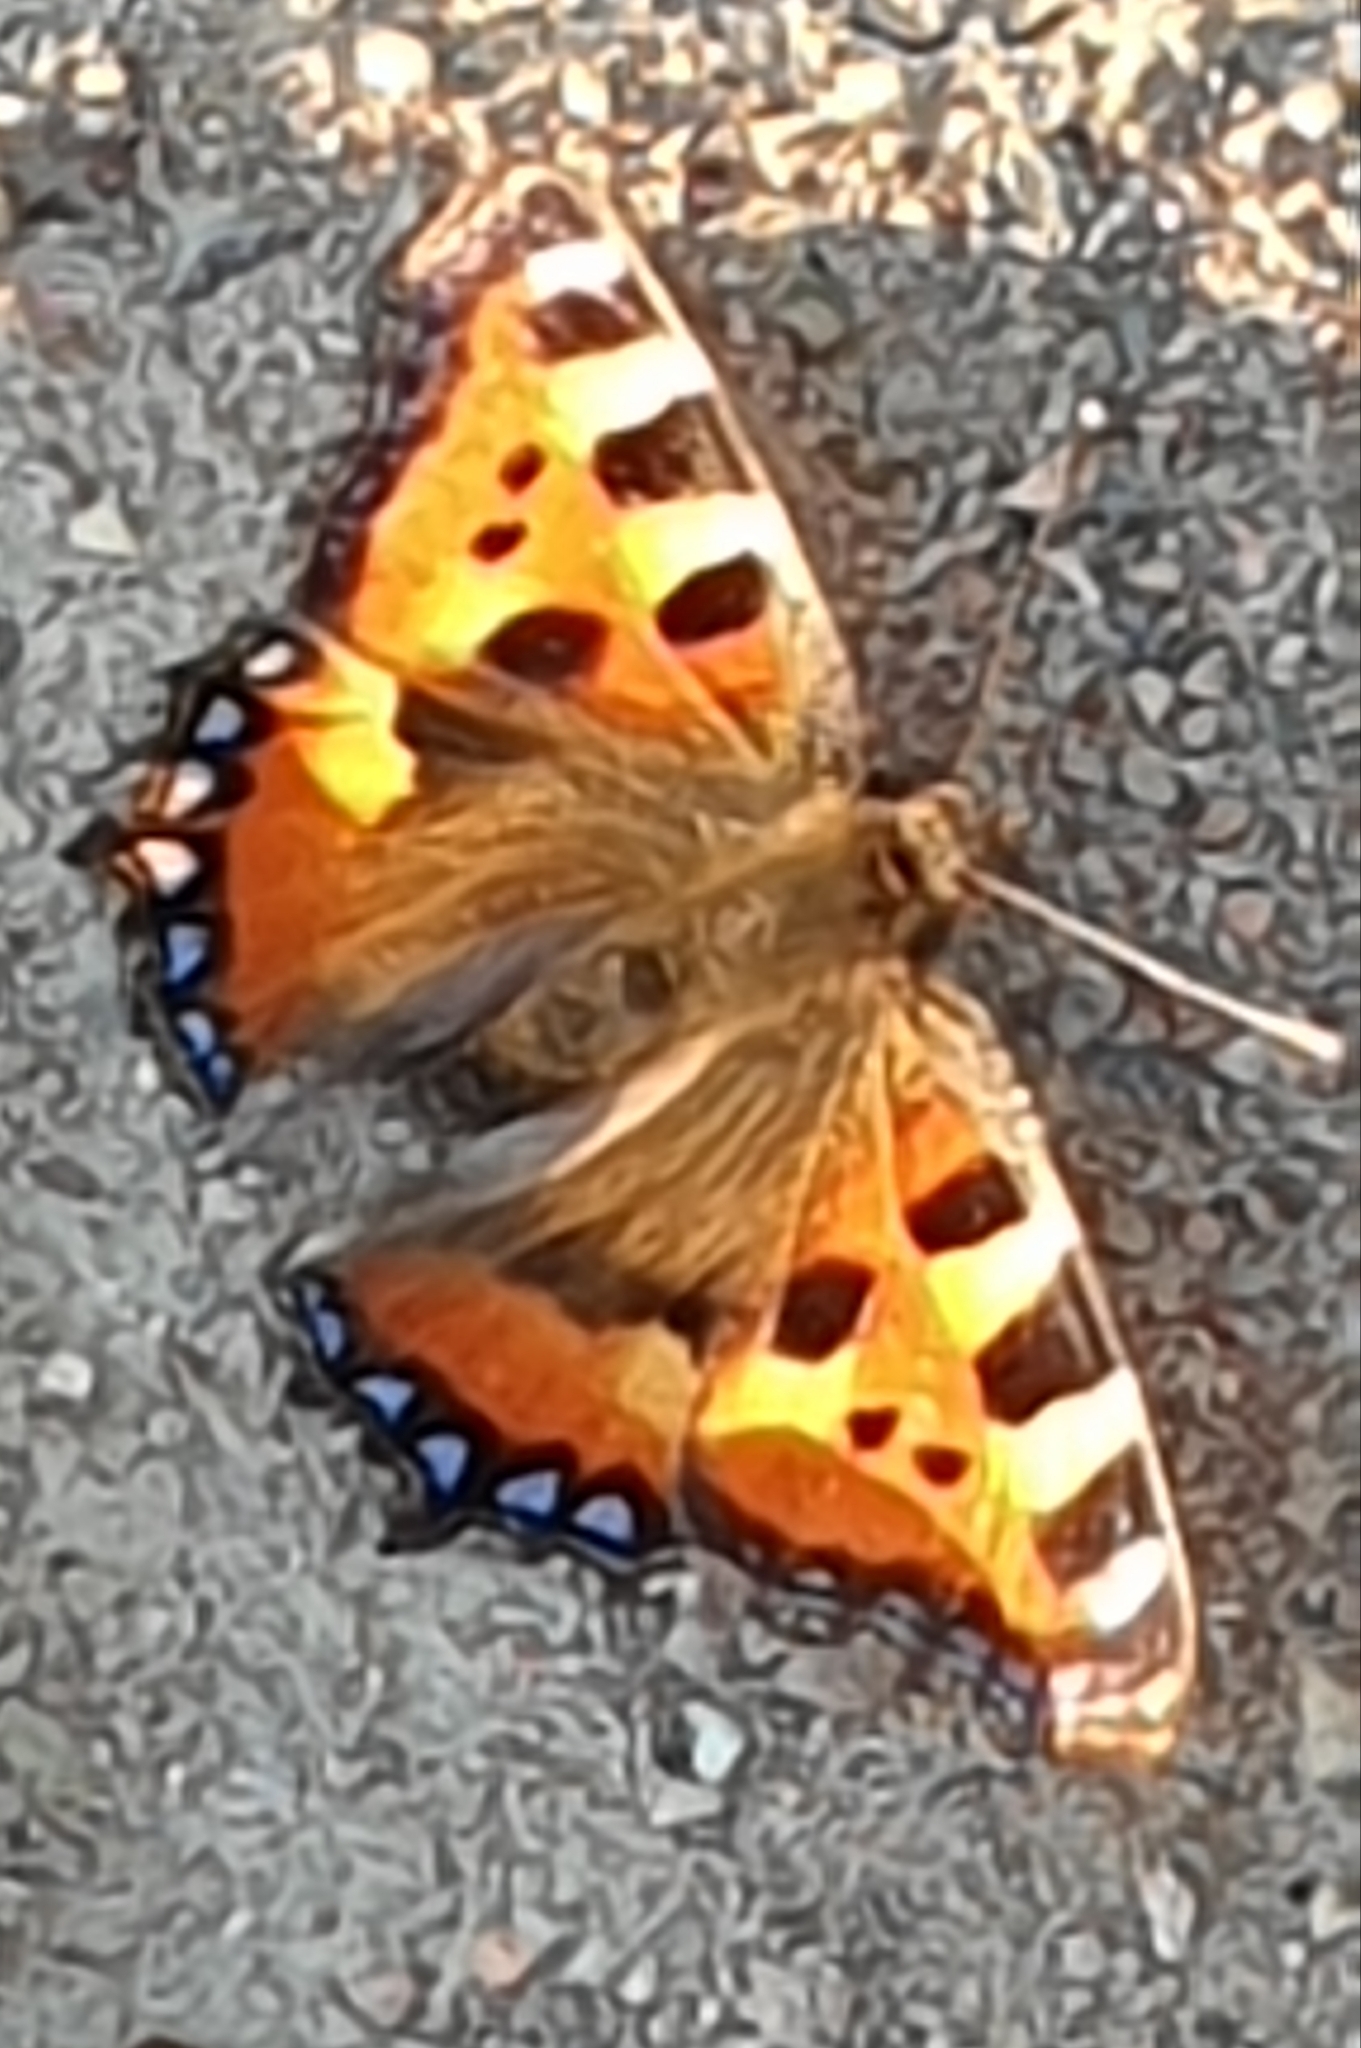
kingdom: Animalia
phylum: Arthropoda
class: Insecta
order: Lepidoptera
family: Nymphalidae
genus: Aglais
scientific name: Aglais urticae
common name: Small tortoiseshell
